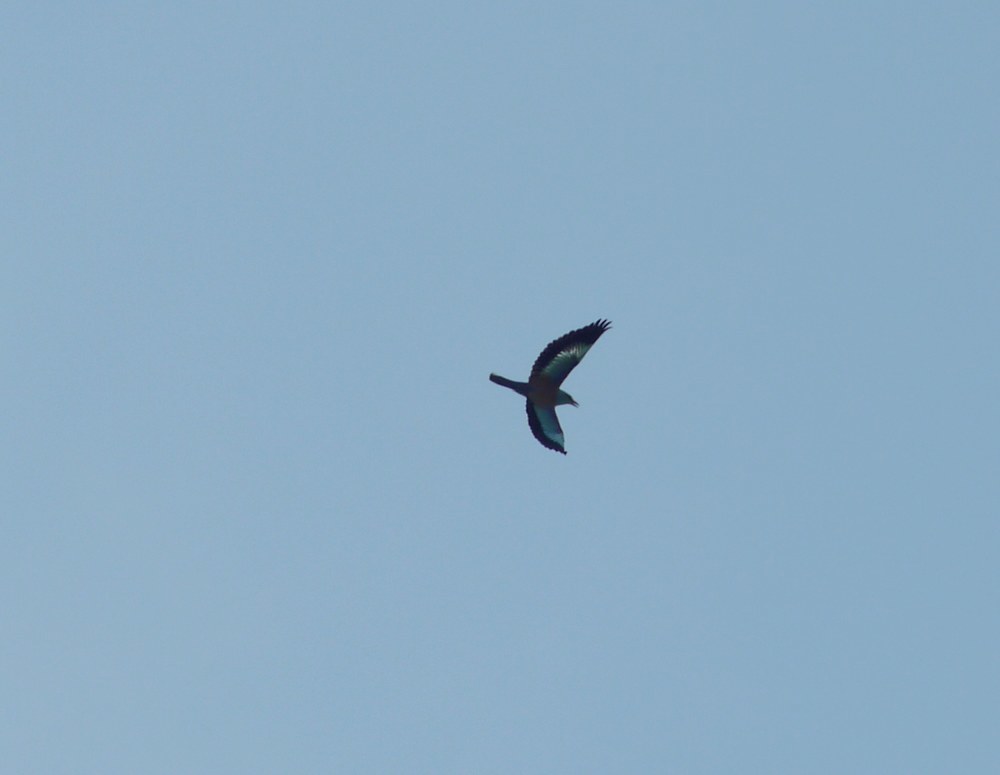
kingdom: Animalia
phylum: Chordata
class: Aves
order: Coraciiformes
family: Coraciidae
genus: Coracias
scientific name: Coracias garrulus
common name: European roller
